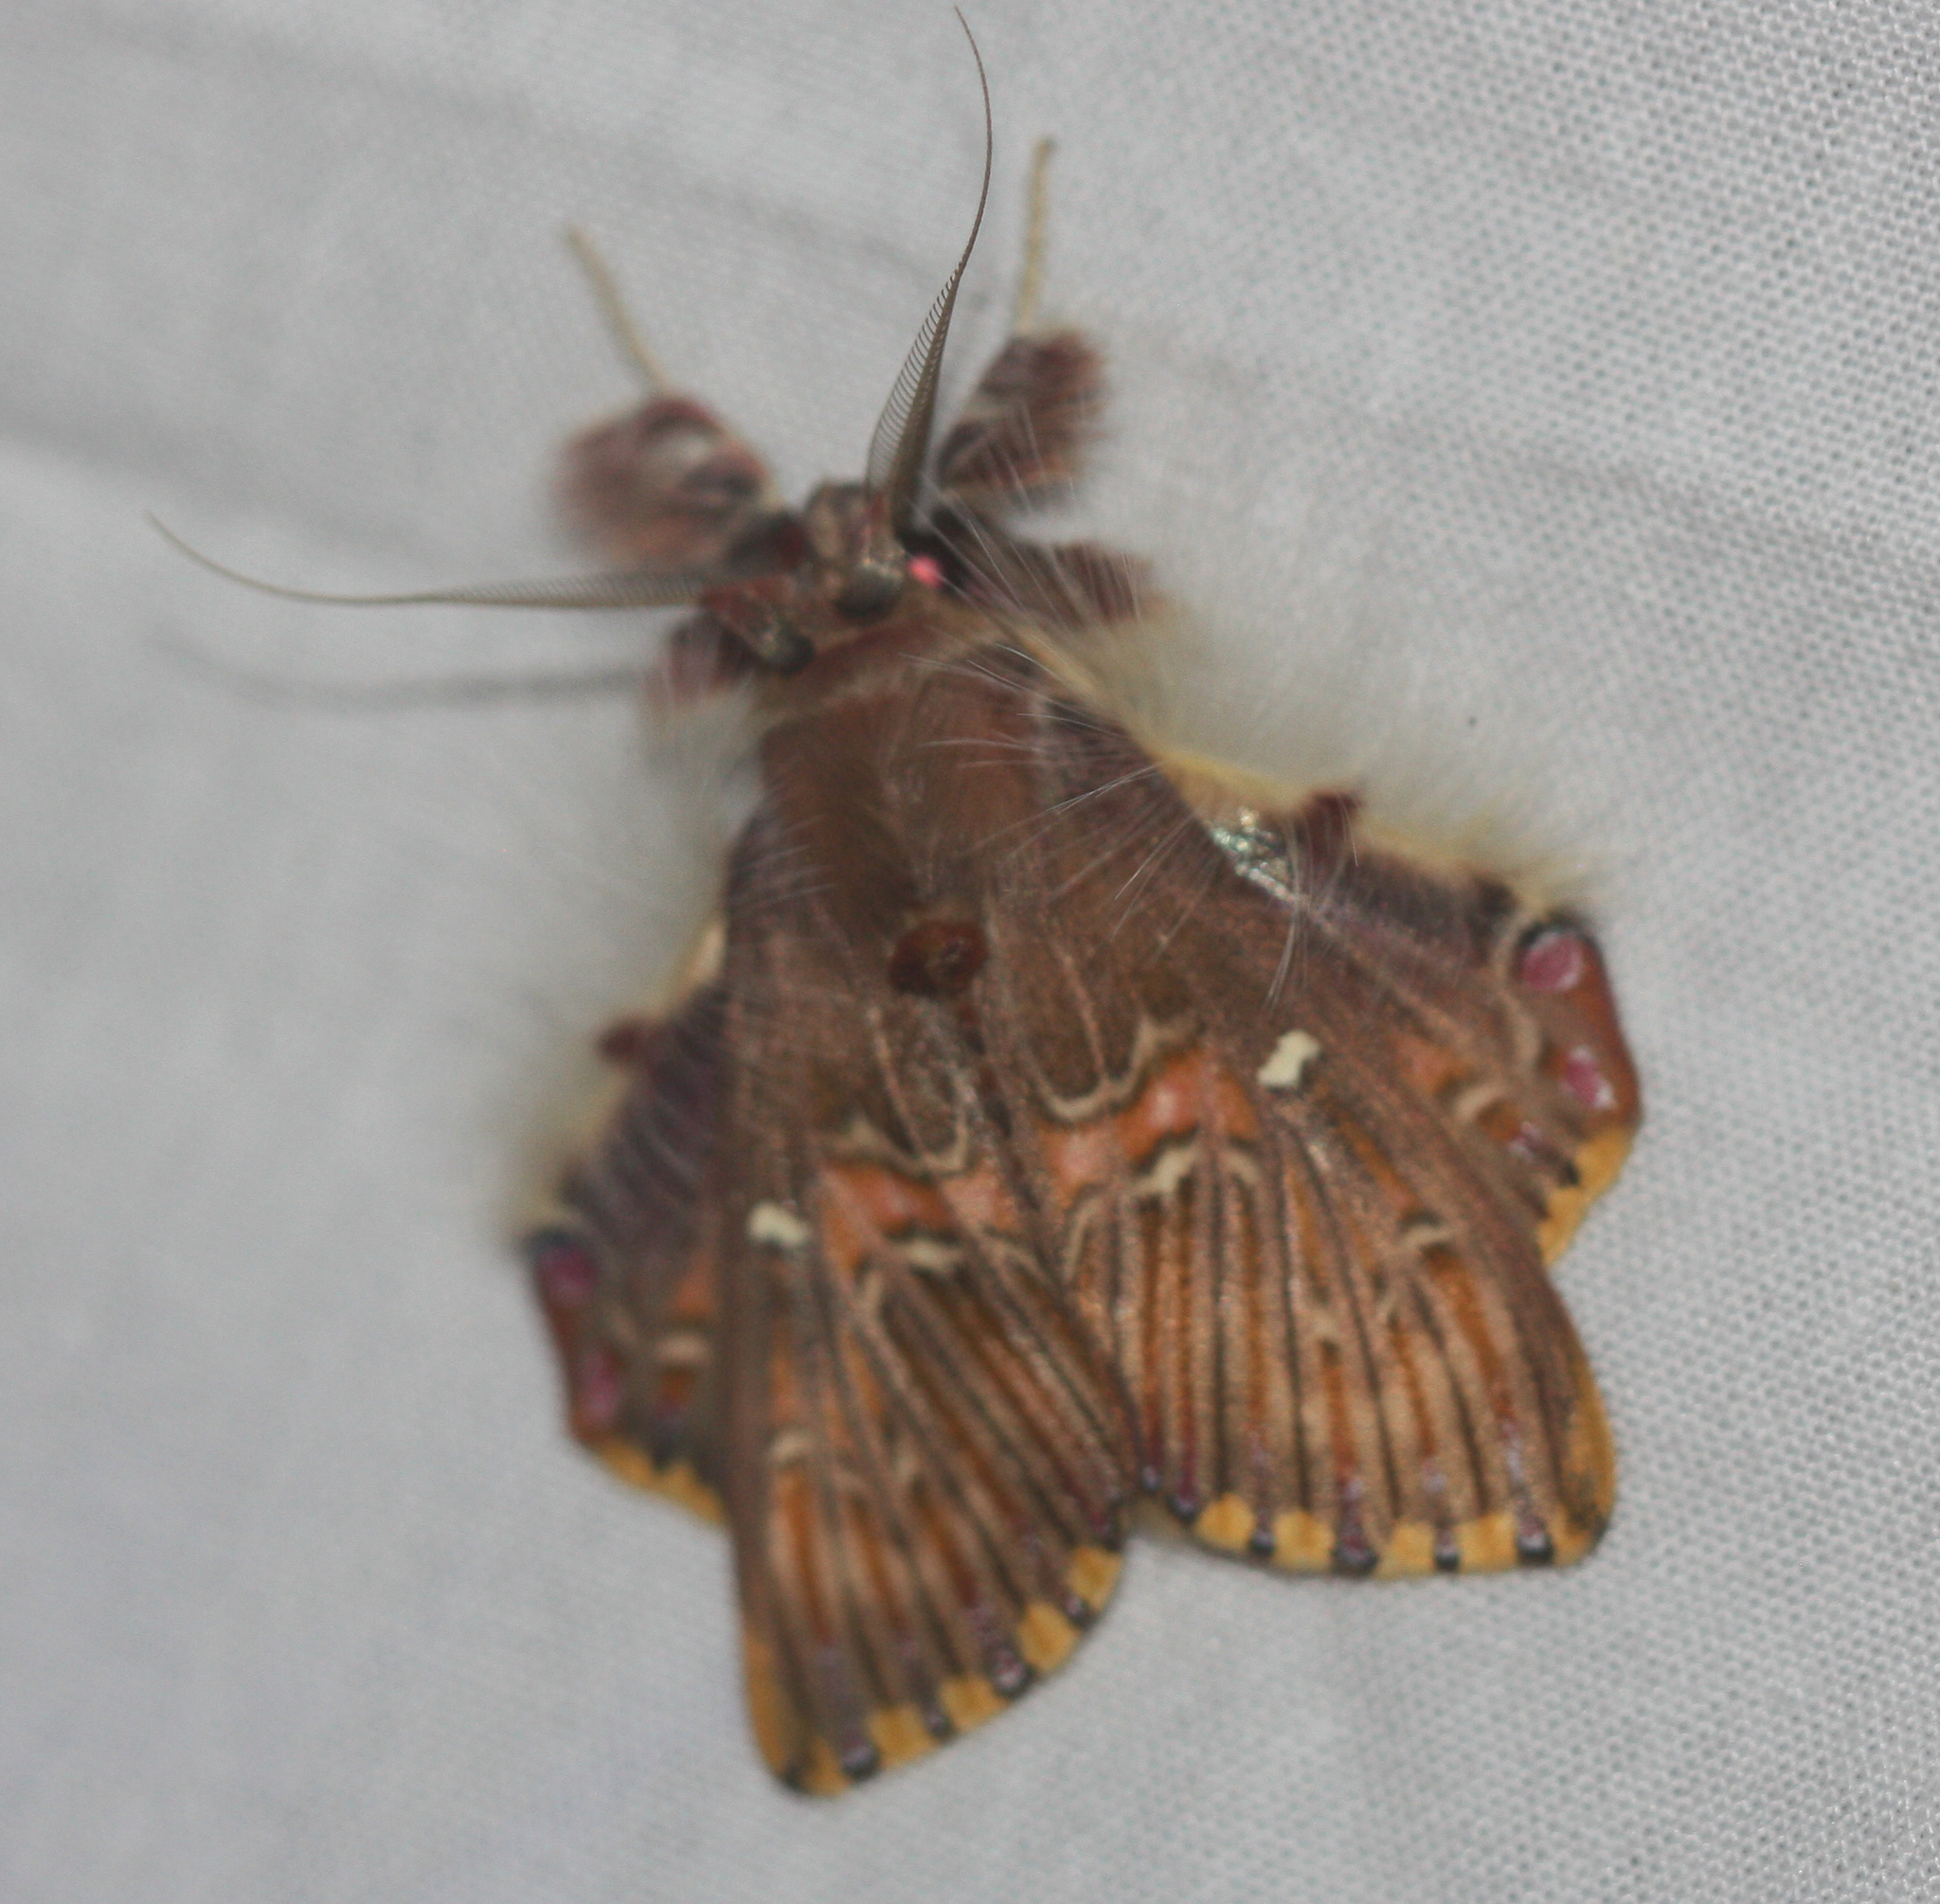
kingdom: Animalia
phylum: Arthropoda
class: Insecta
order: Lepidoptera
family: Erebidae
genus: Sosxetra
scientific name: Sosxetra grata
